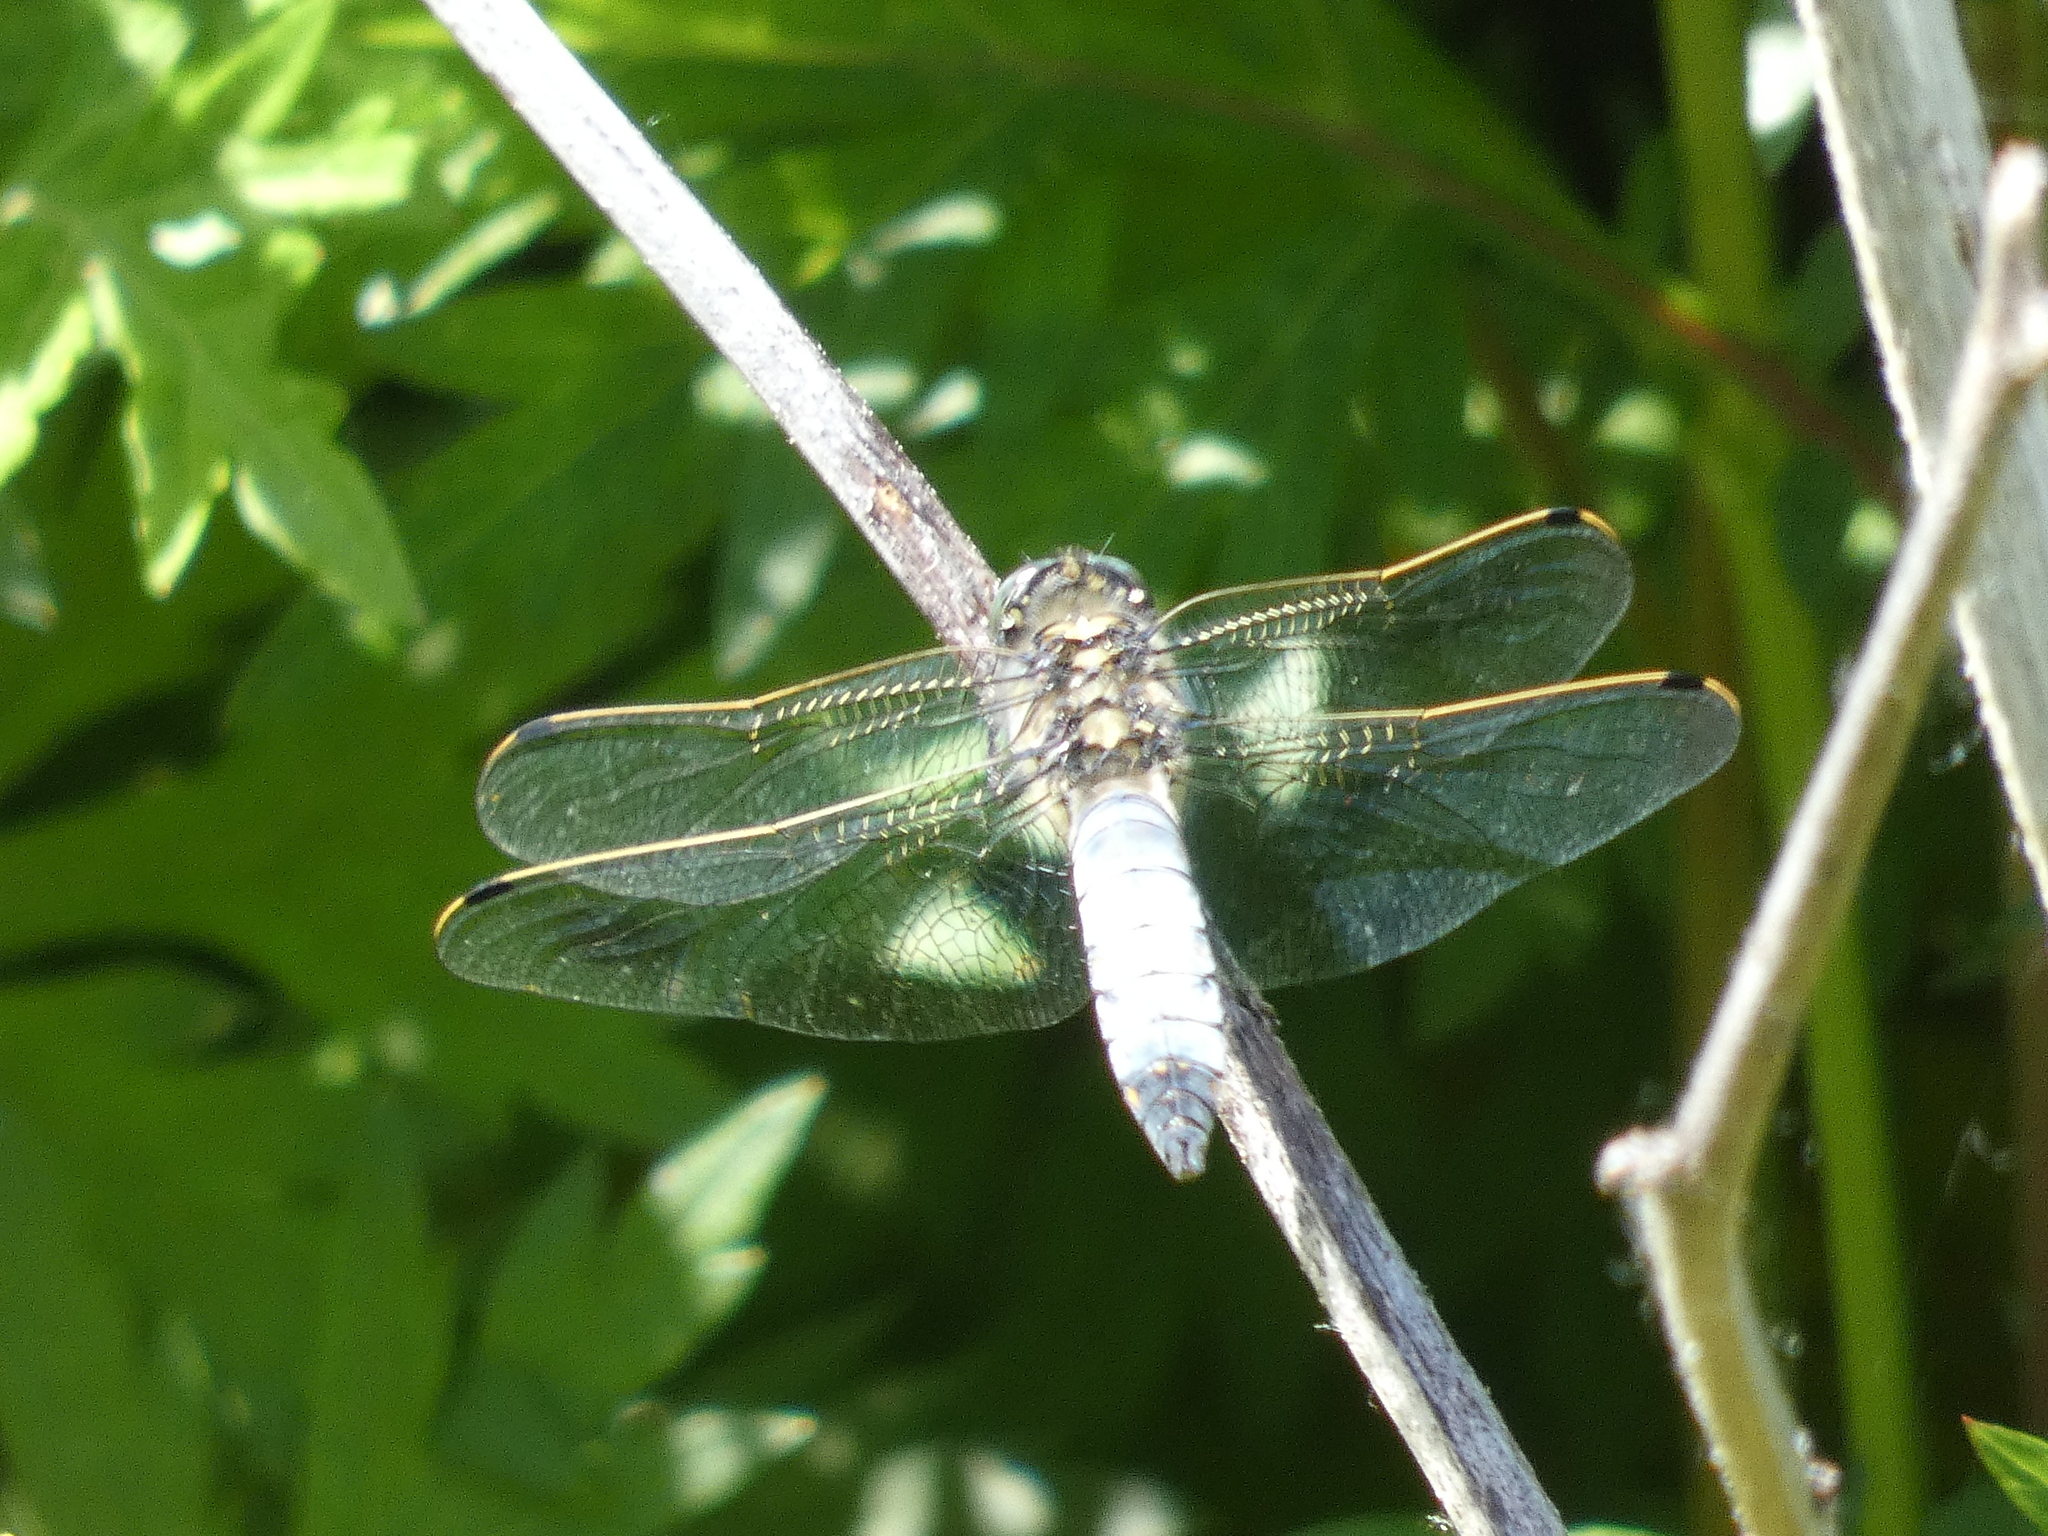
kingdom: Animalia
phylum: Arthropoda
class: Insecta
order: Odonata
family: Libellulidae
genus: Orthetrum
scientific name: Orthetrum cancellatum
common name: Black-tailed skimmer
